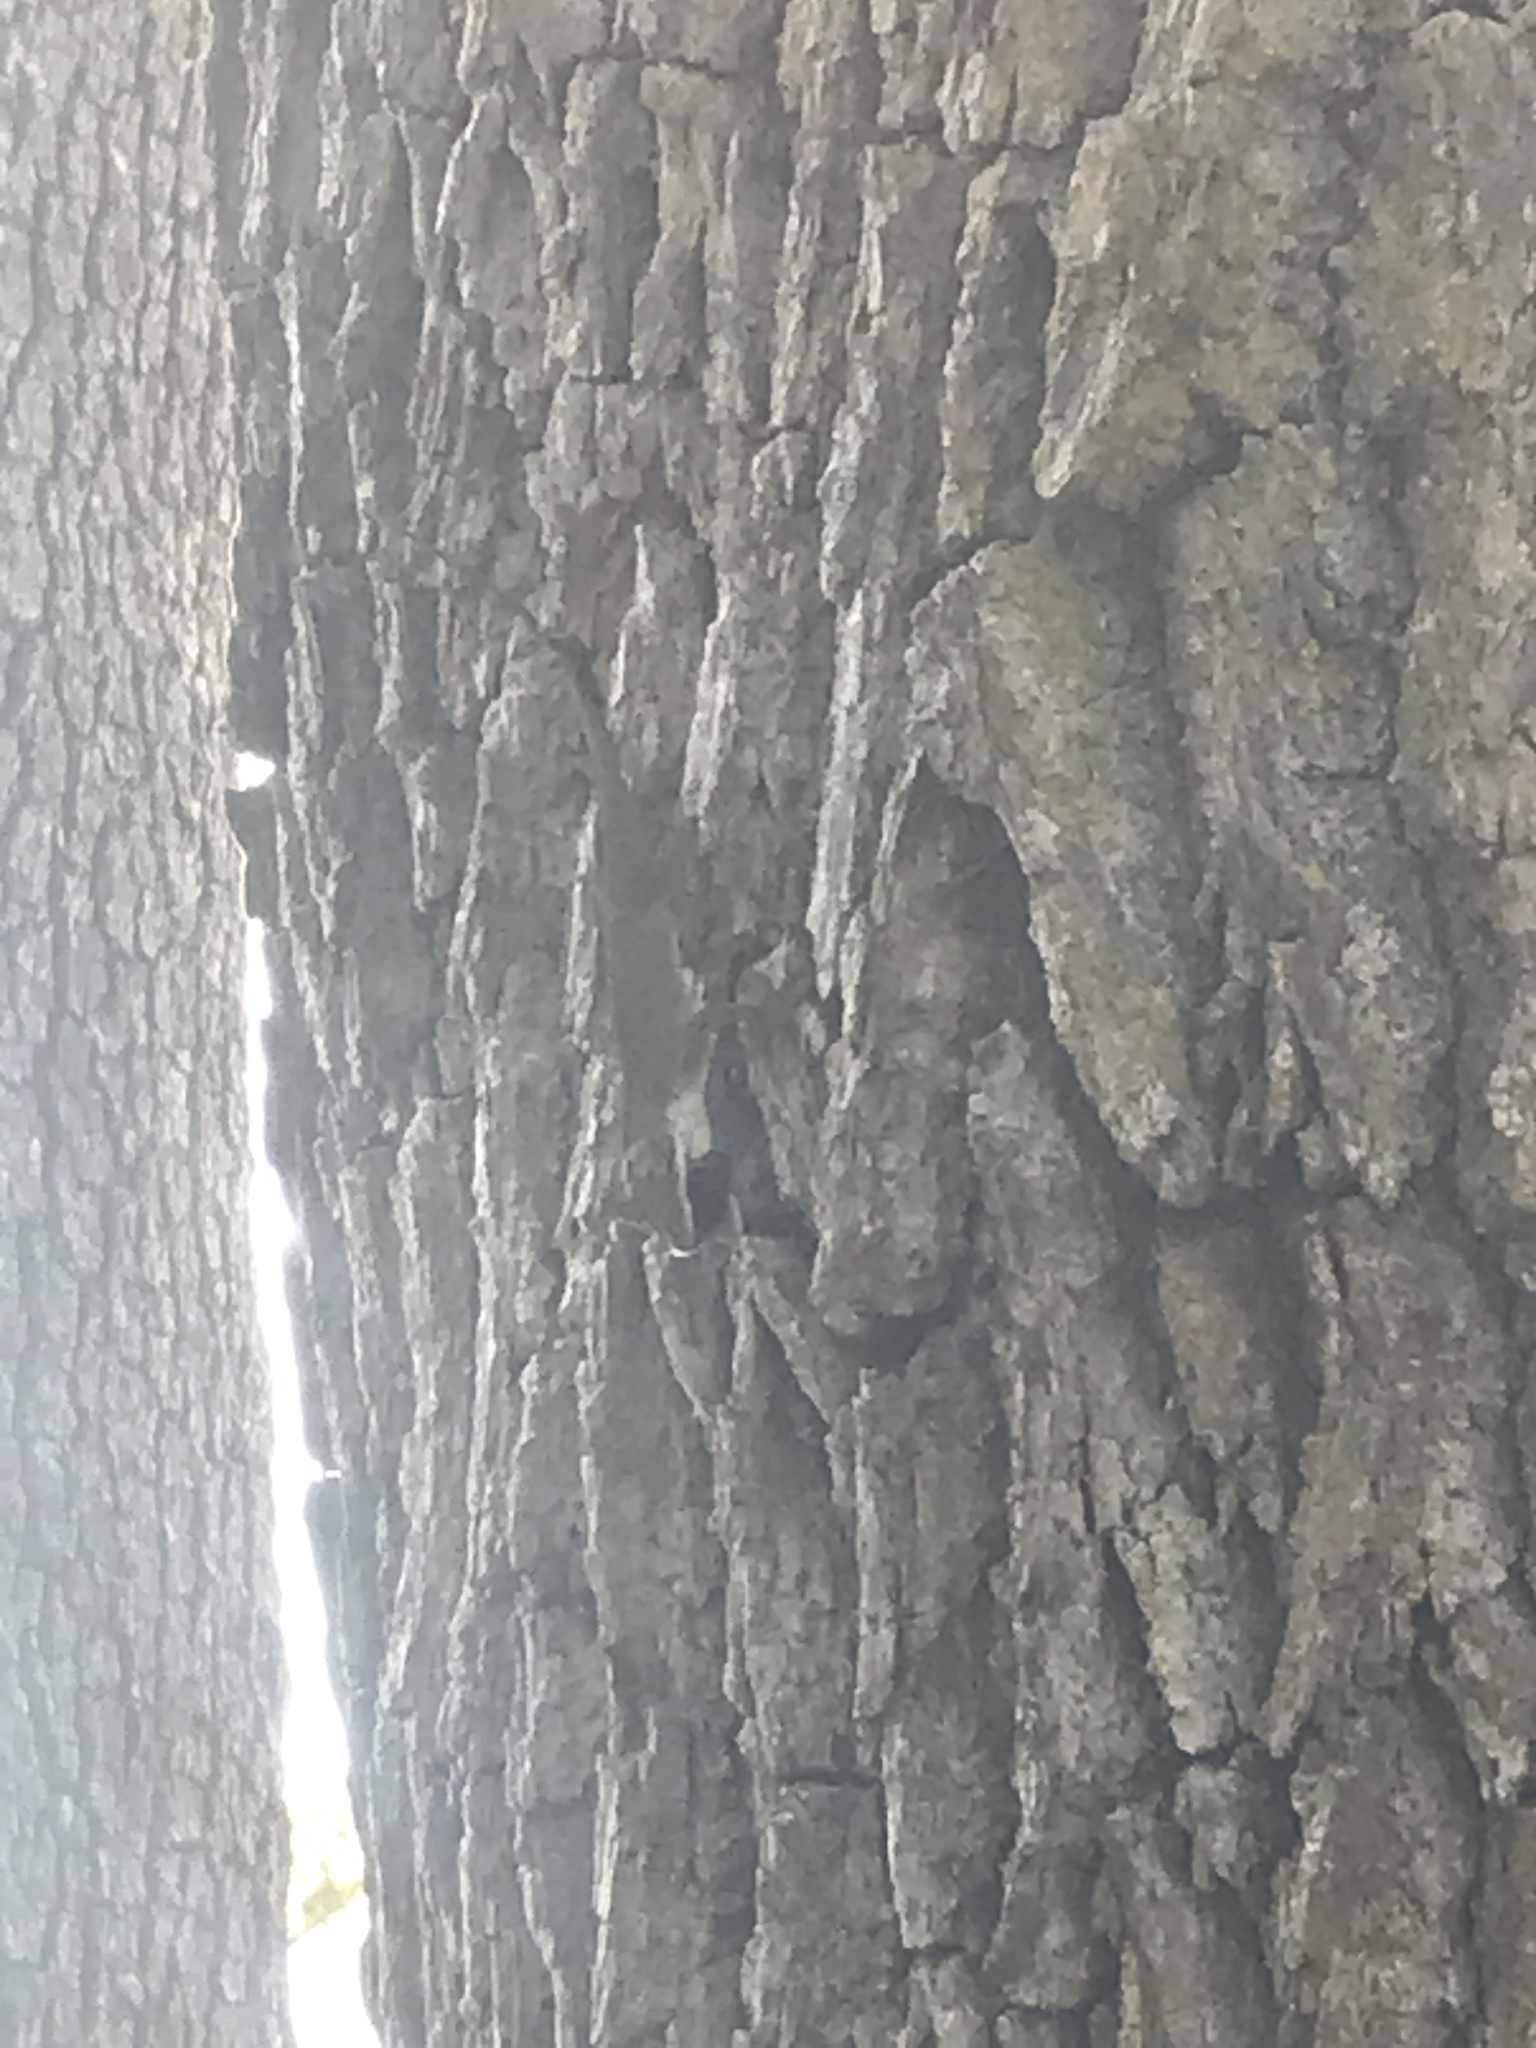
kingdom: Animalia
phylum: Chordata
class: Squamata
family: Dactyloidae
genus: Anolis
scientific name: Anolis carolinensis
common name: Green anole
